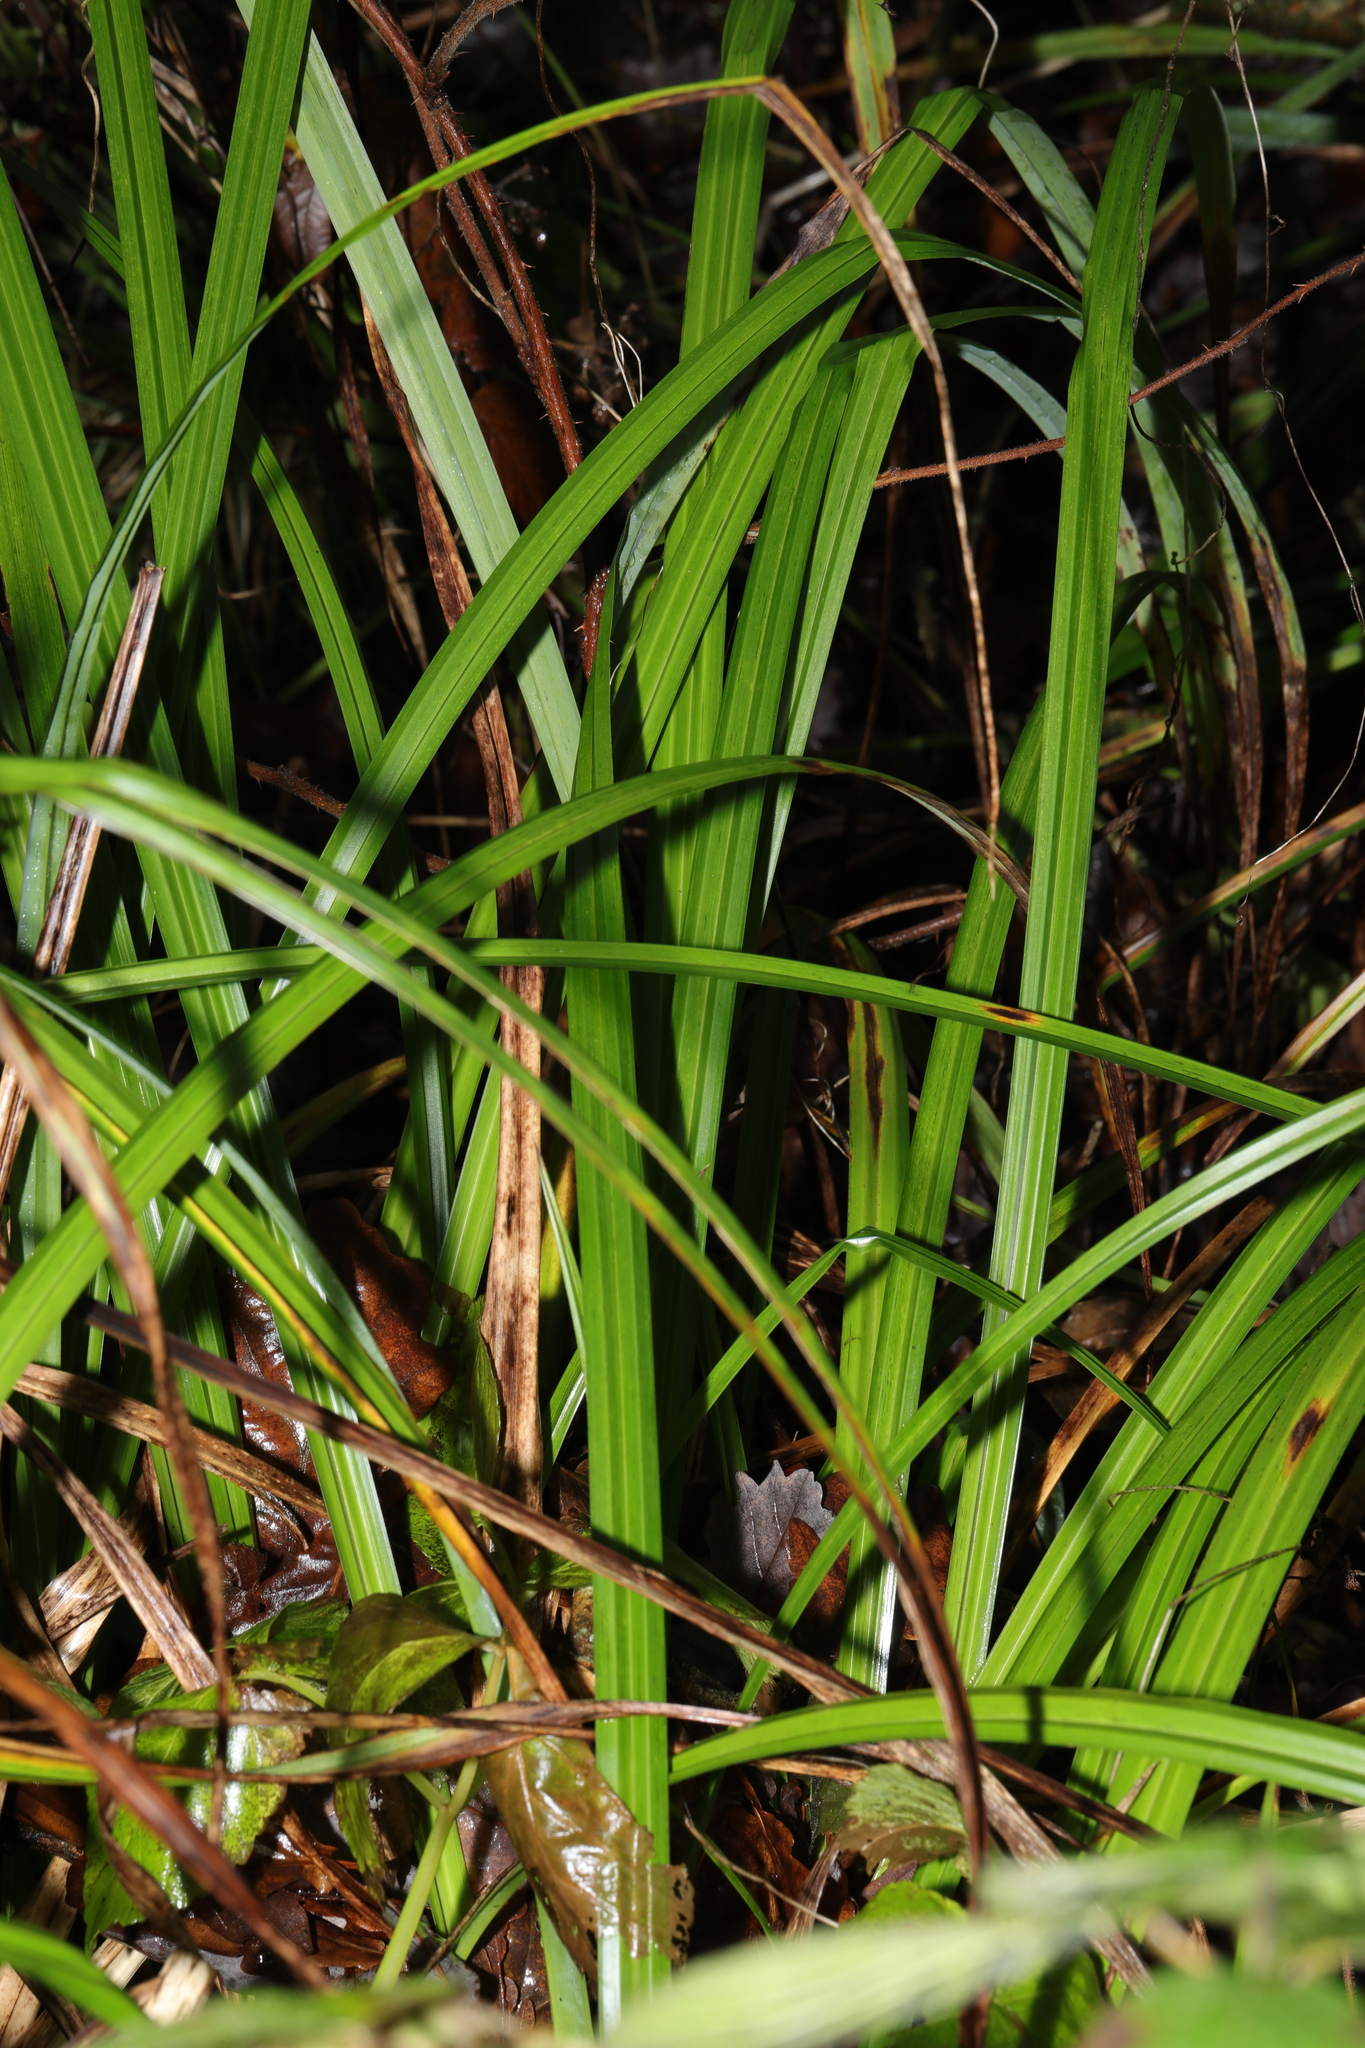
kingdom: Plantae
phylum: Tracheophyta
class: Liliopsida
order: Poales
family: Cyperaceae
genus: Carex
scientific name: Carex pendula
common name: Pendulous sedge
